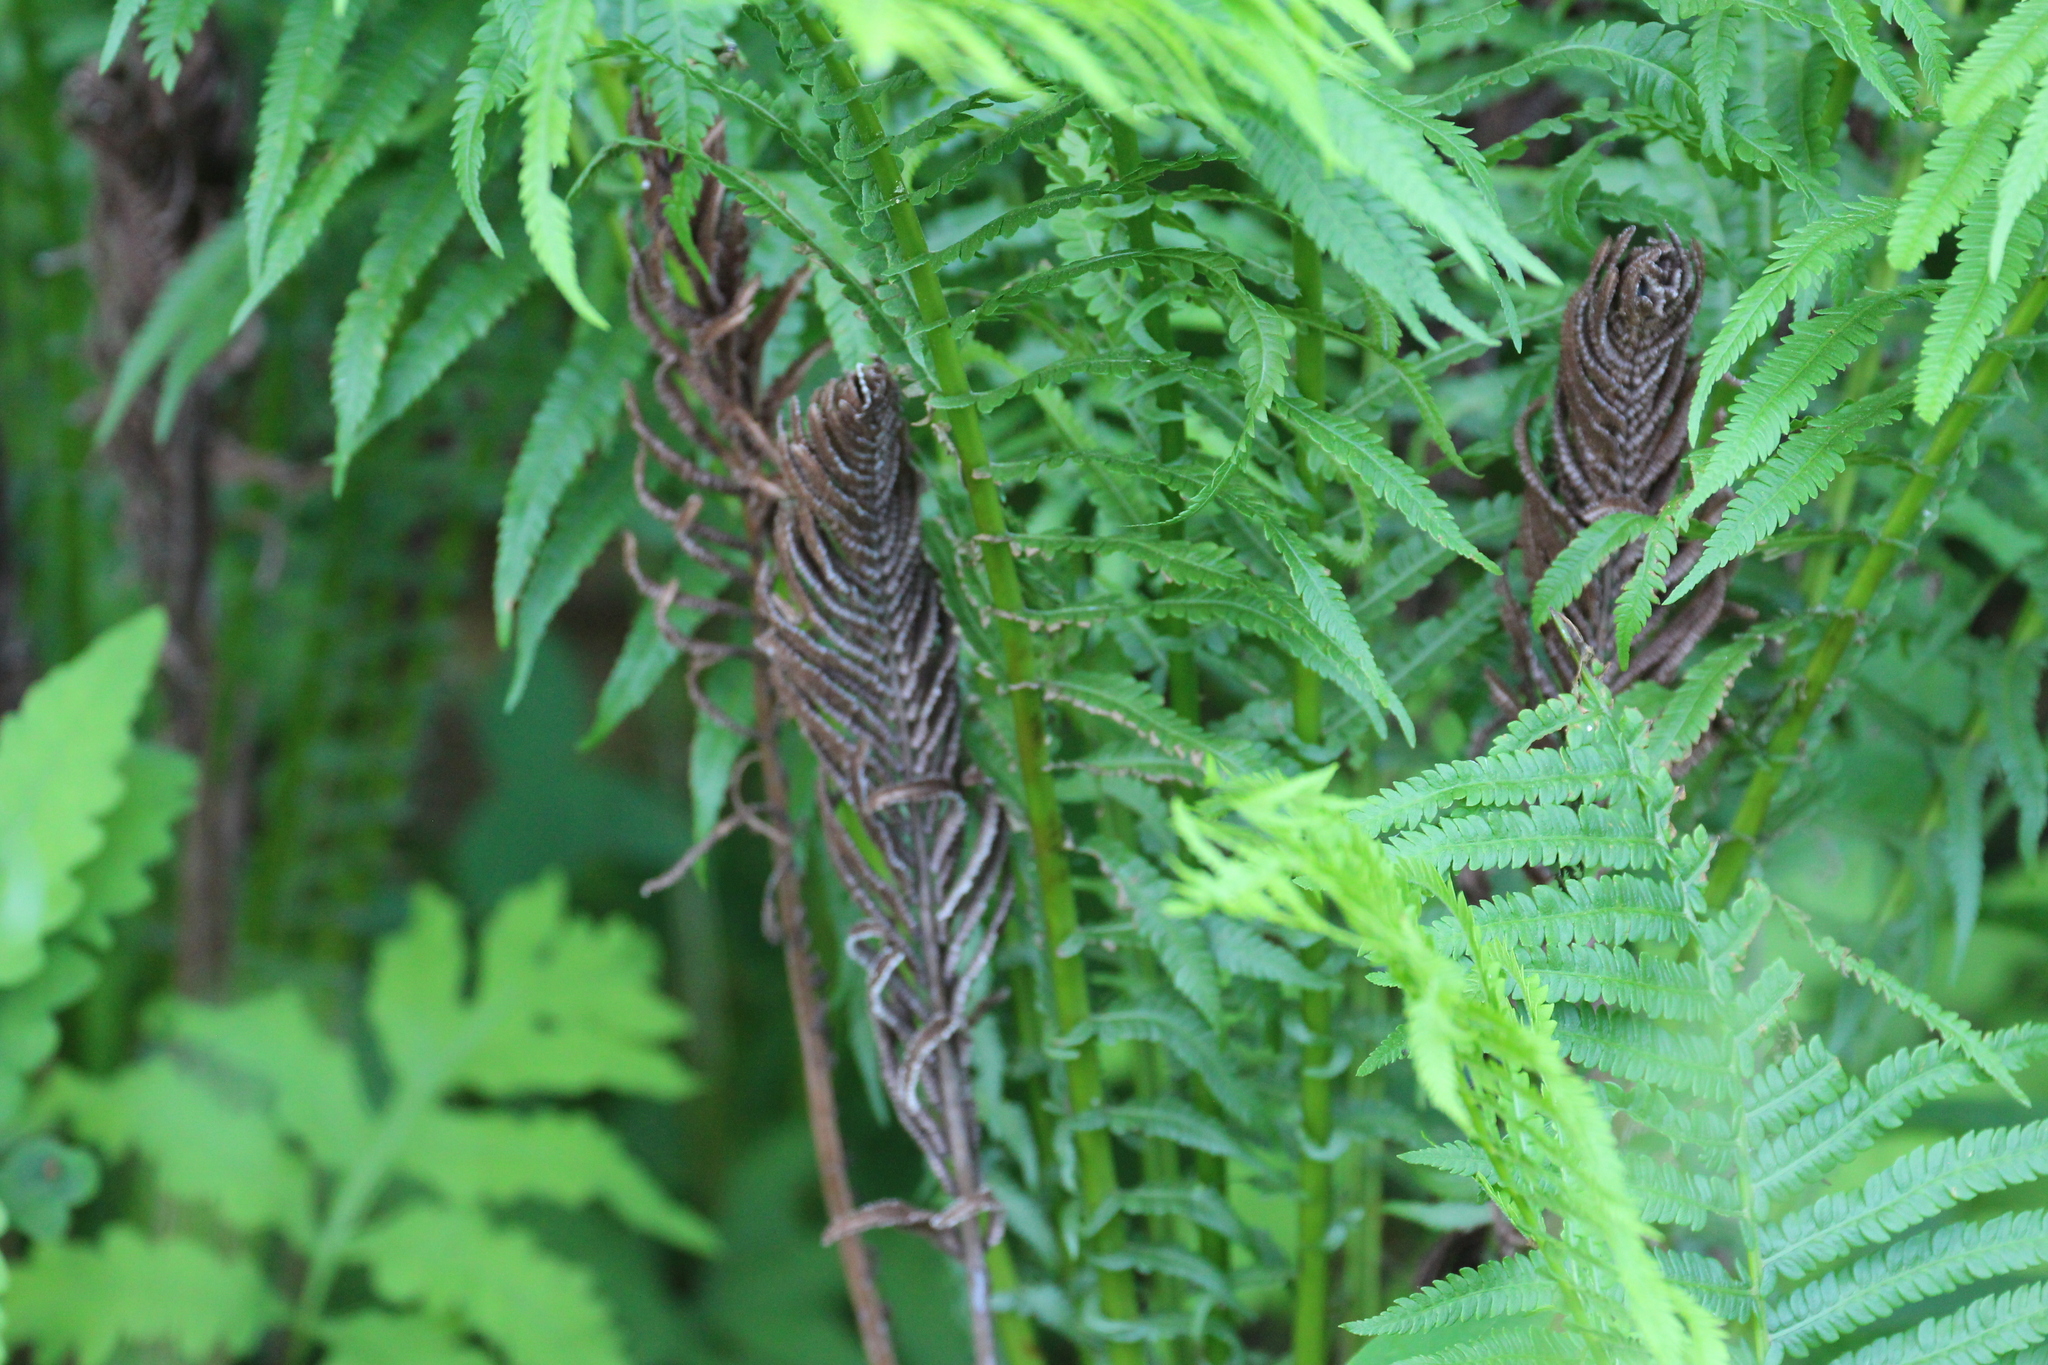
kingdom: Plantae
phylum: Tracheophyta
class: Polypodiopsida
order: Polypodiales
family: Onocleaceae
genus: Matteuccia
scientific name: Matteuccia struthiopteris
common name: Ostrich fern
